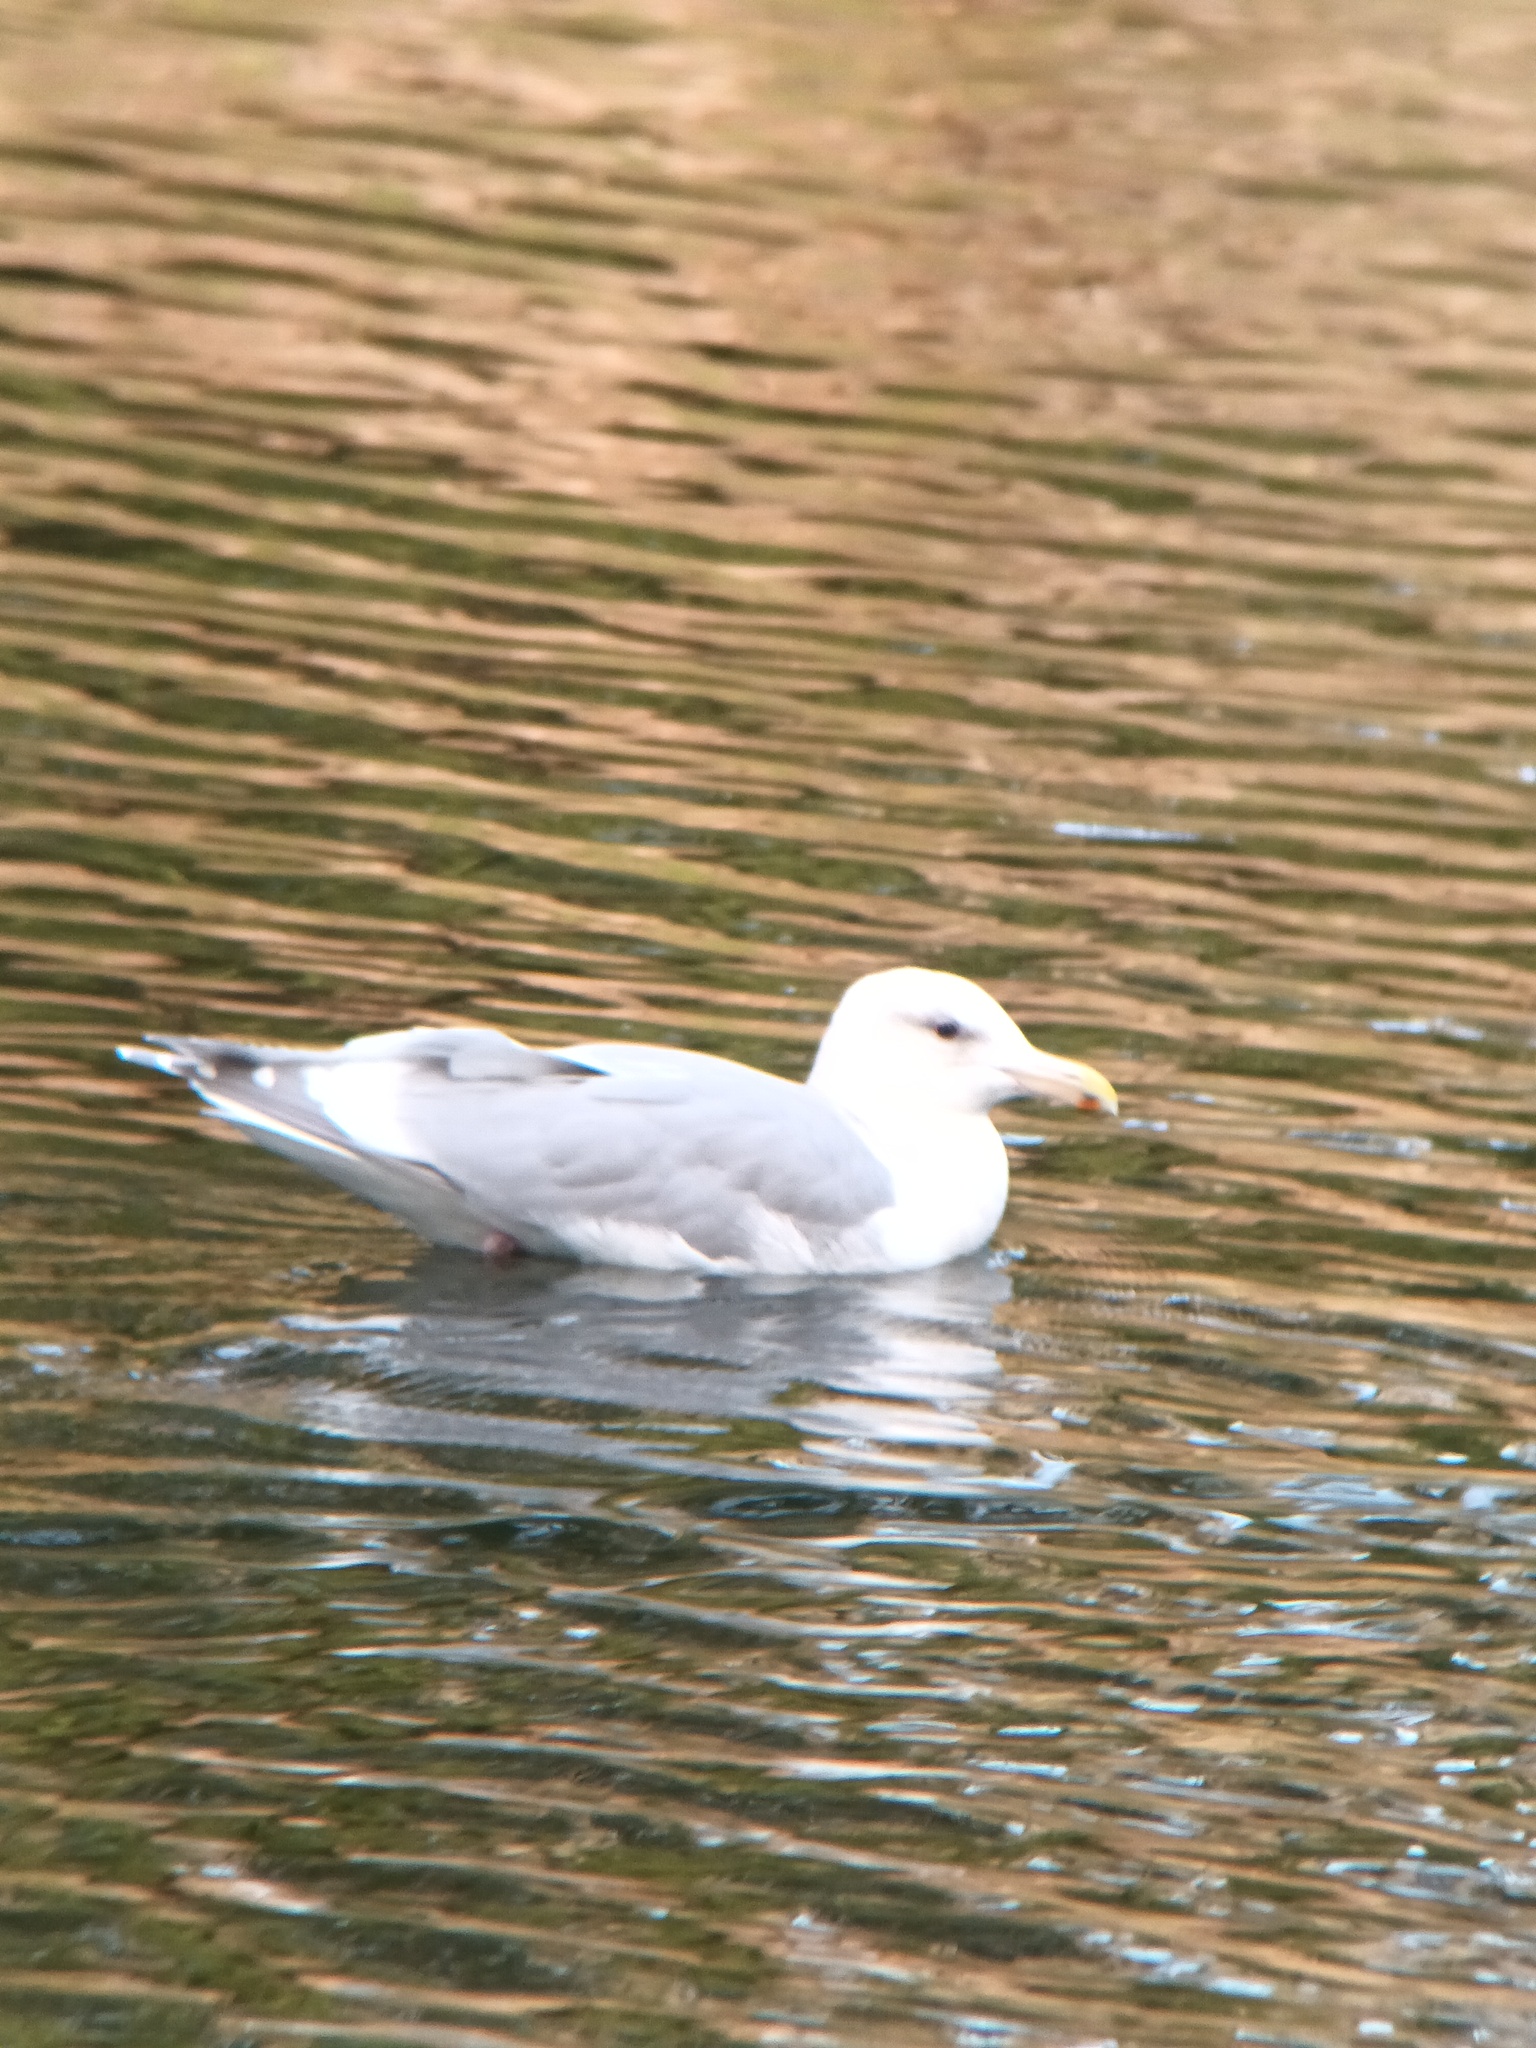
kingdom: Animalia
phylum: Chordata
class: Aves
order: Charadriiformes
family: Laridae
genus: Larus
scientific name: Larus glaucescens
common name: Glaucous-winged gull
